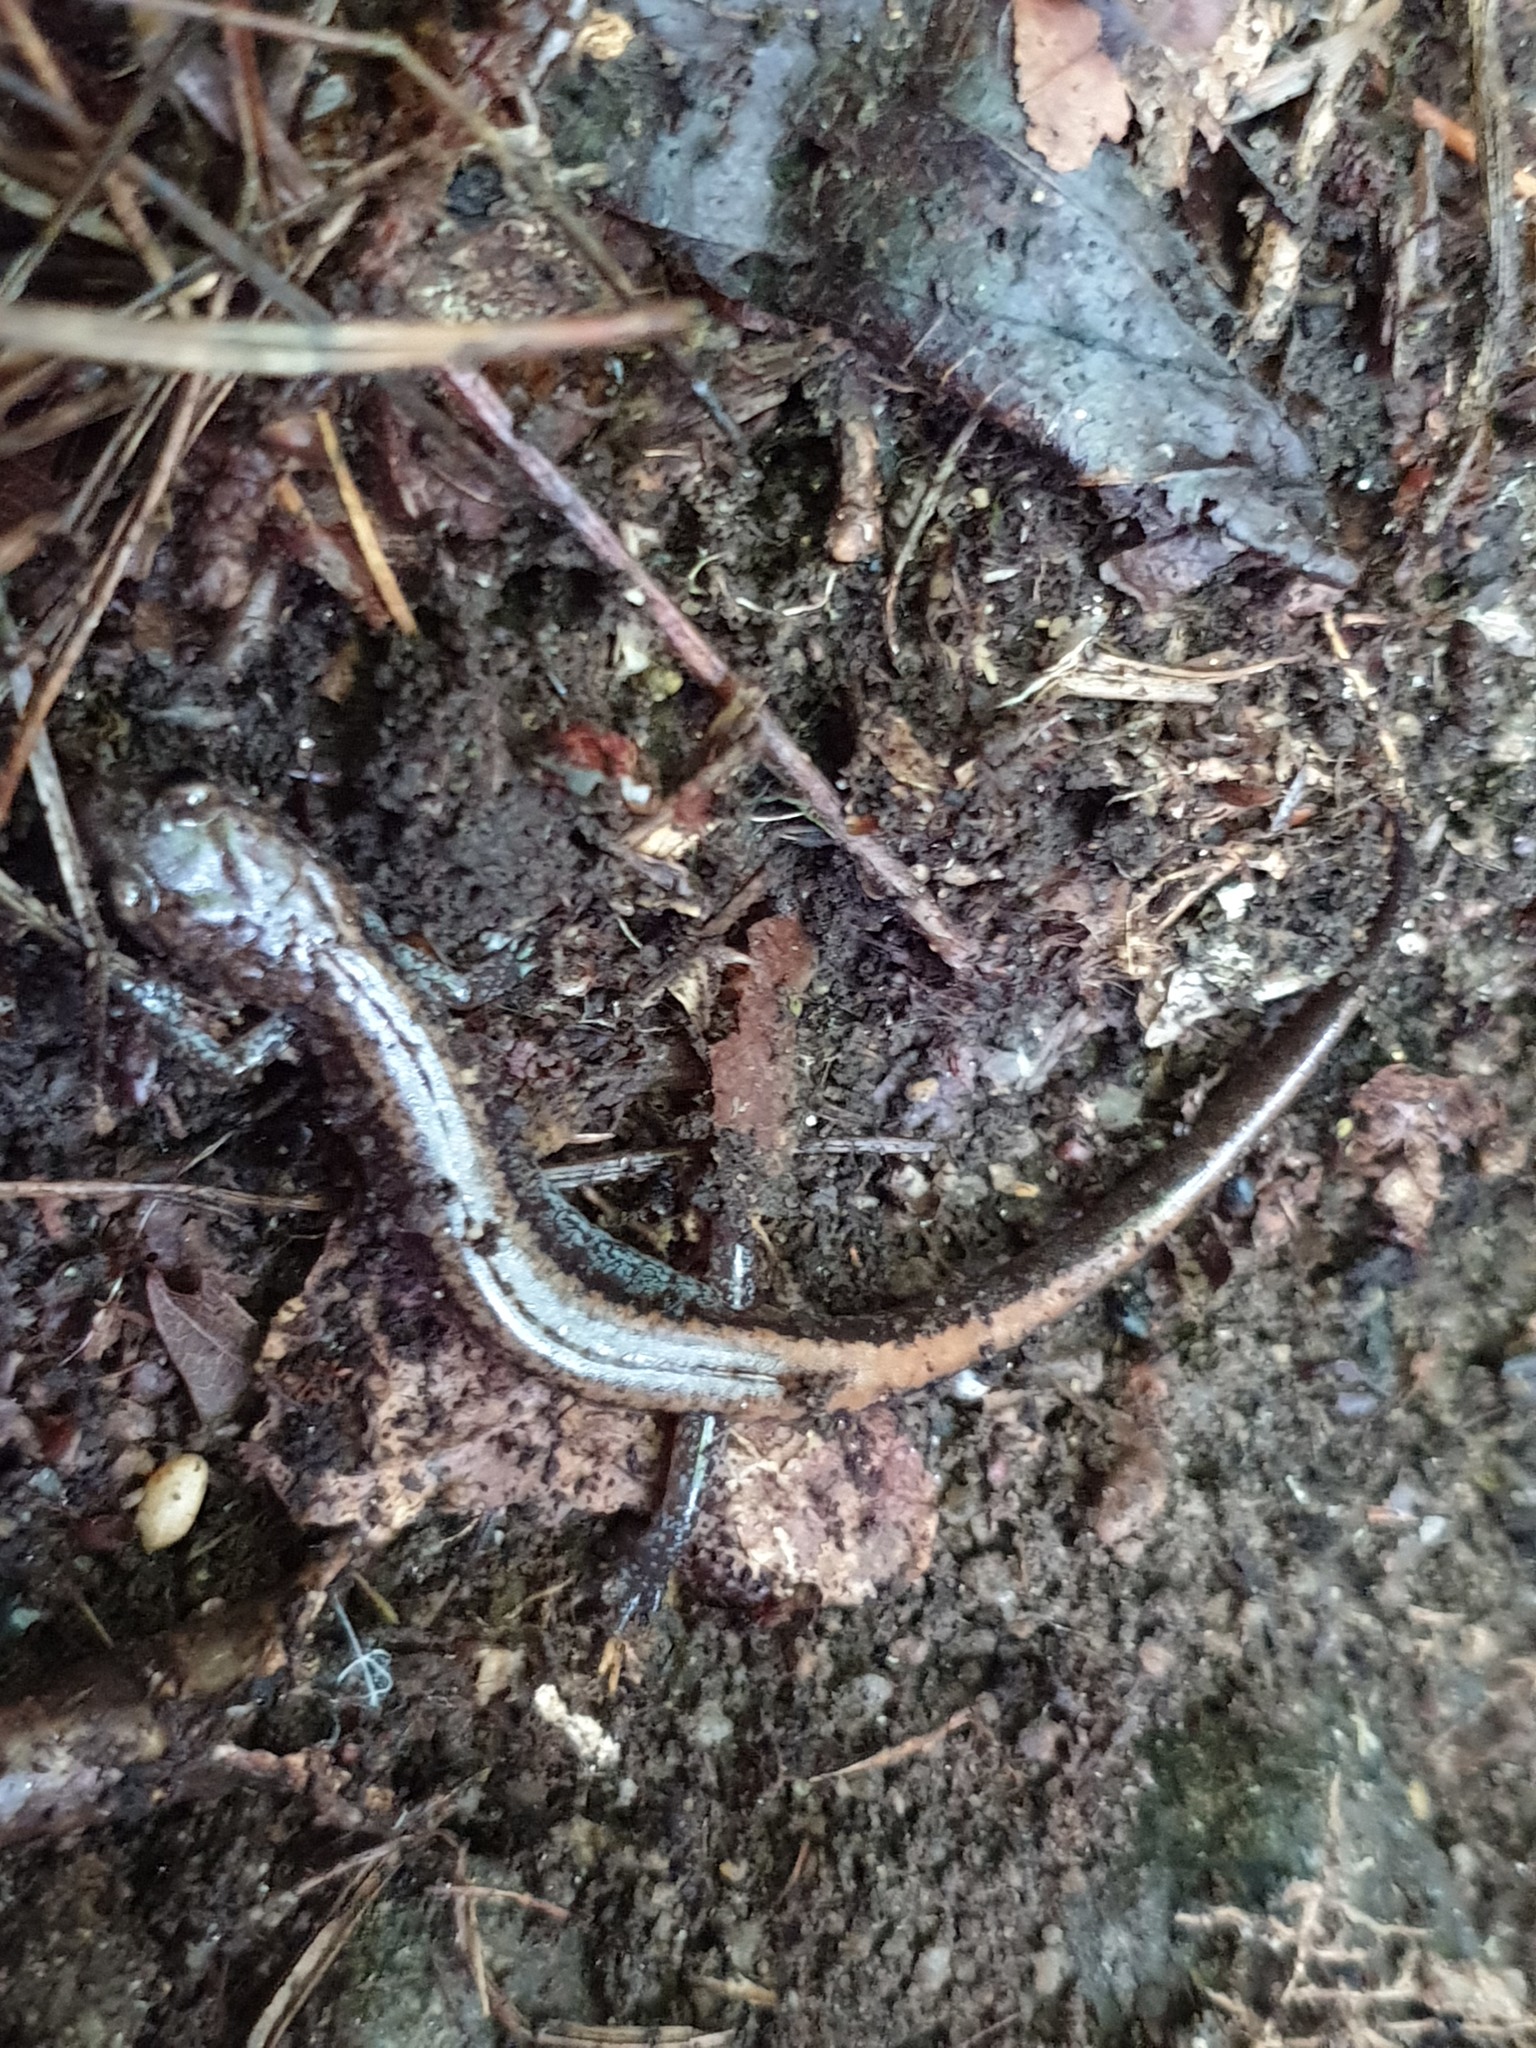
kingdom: Animalia
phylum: Chordata
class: Amphibia
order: Caudata
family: Plethodontidae
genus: Karsenia
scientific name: Karsenia koreana
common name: Korean crevice salamander
